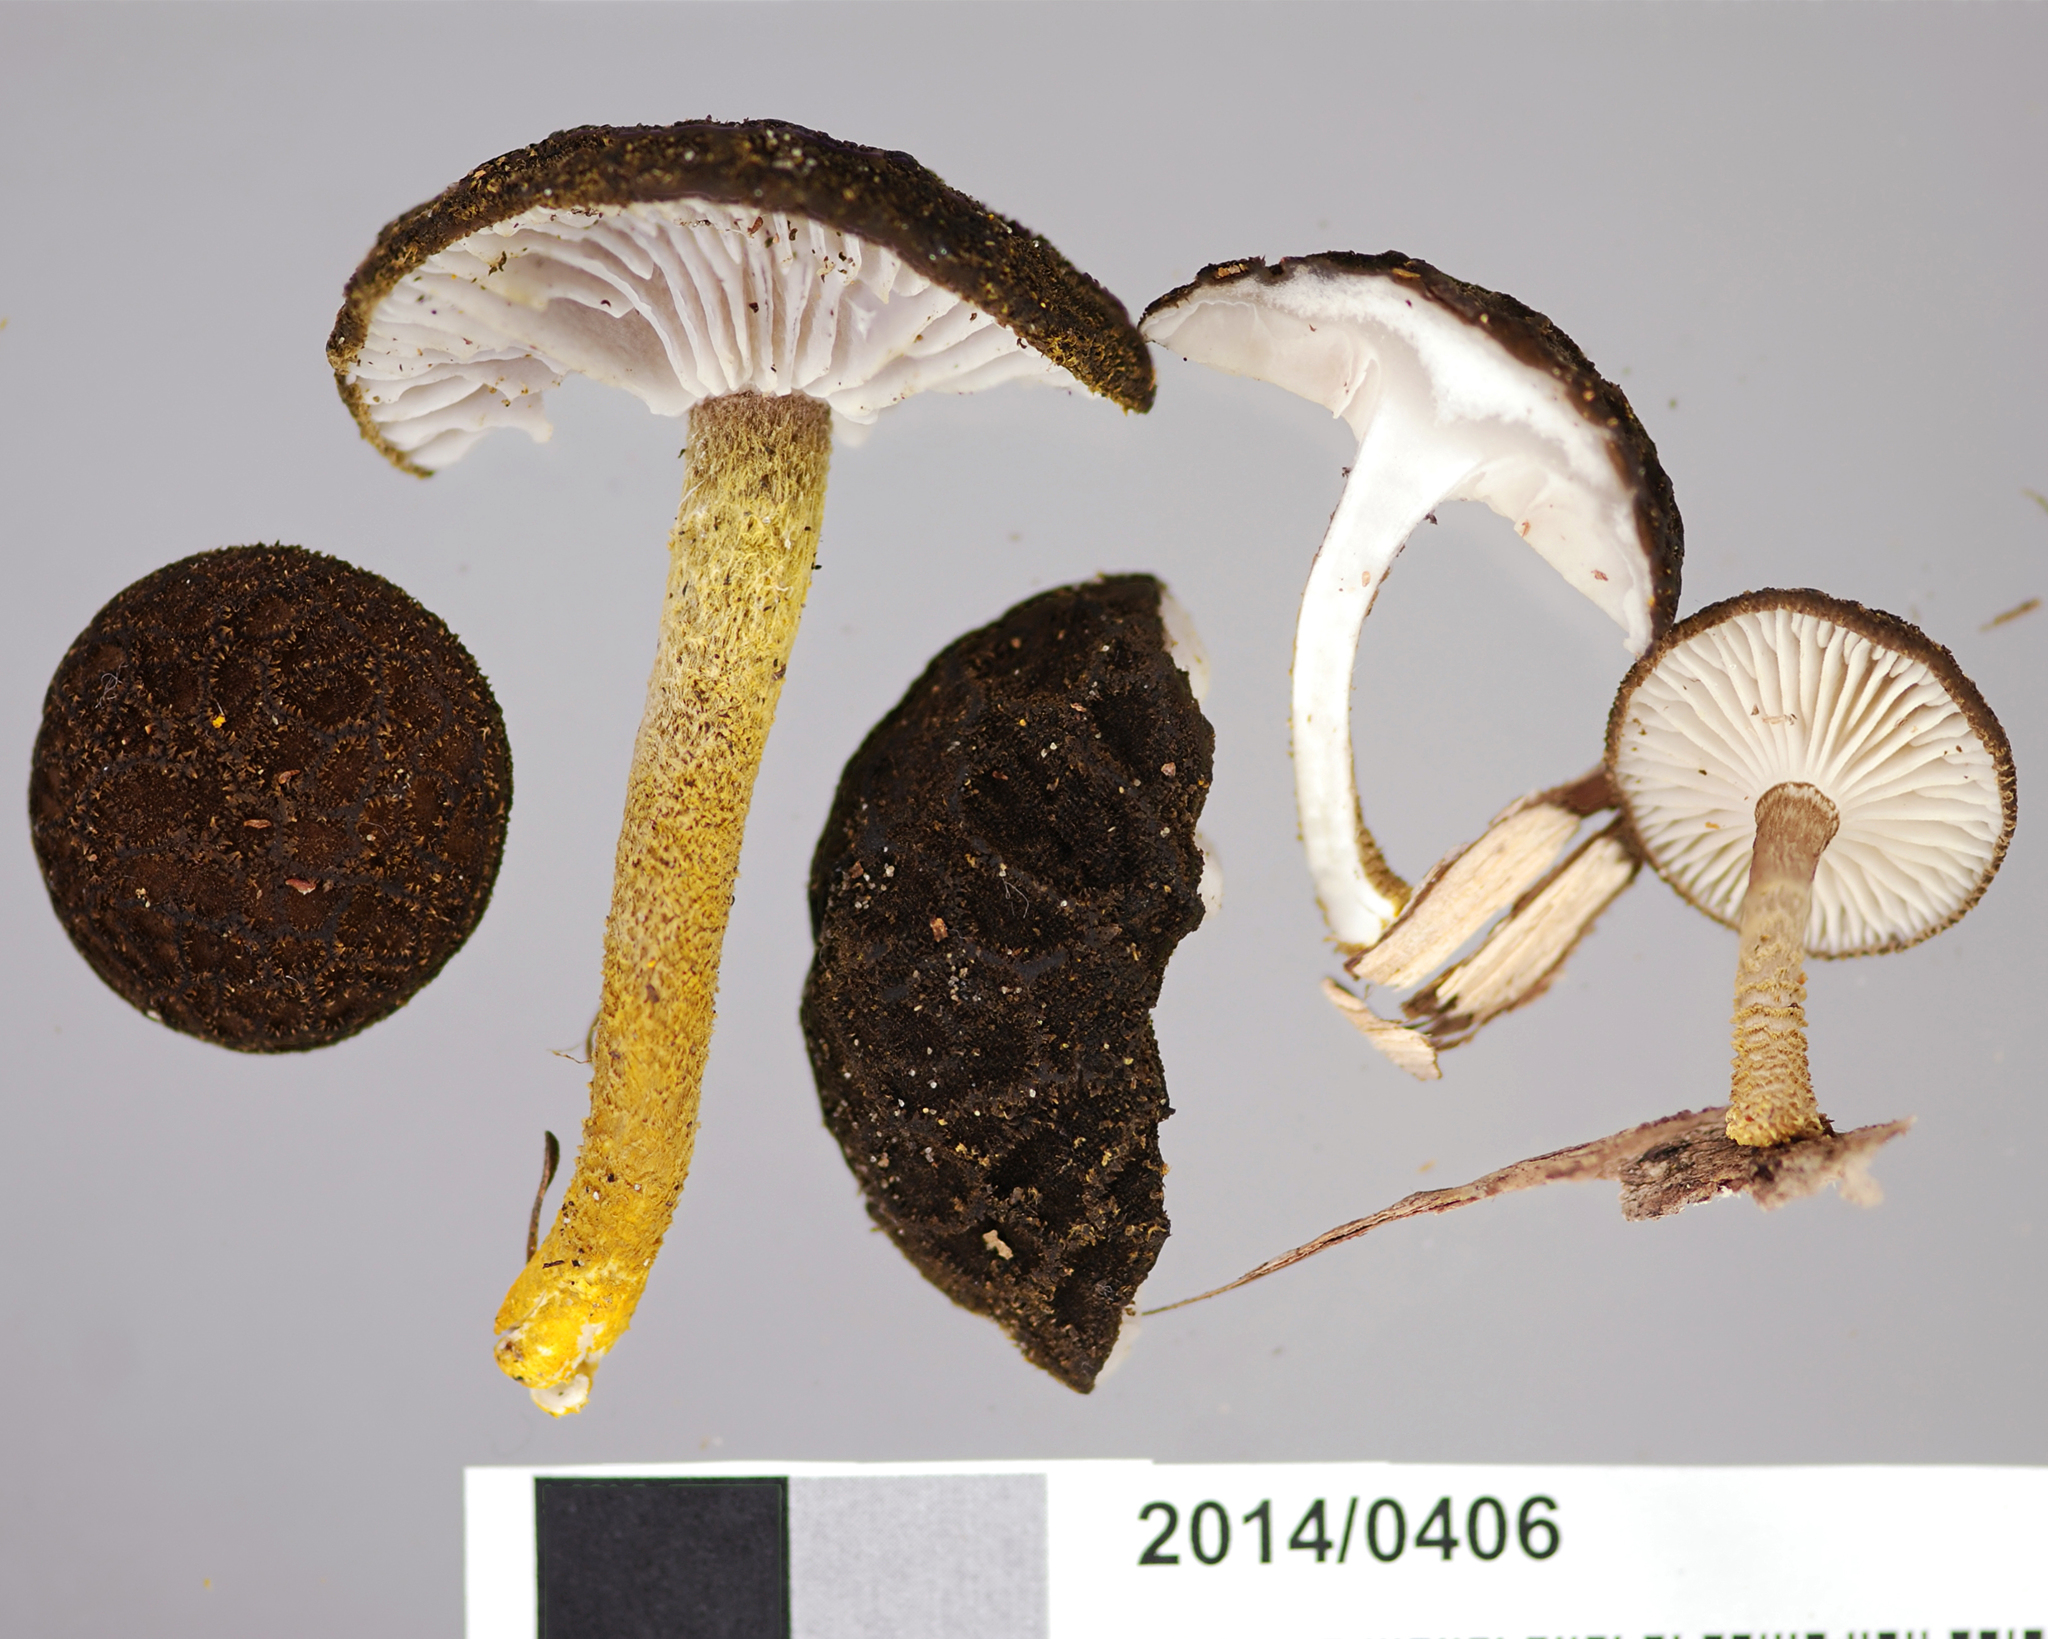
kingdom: Fungi
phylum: Basidiomycota
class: Agaricomycetes
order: Agaricales
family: Physalacriaceae
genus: Cyptotrama
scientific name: Cyptotrama
